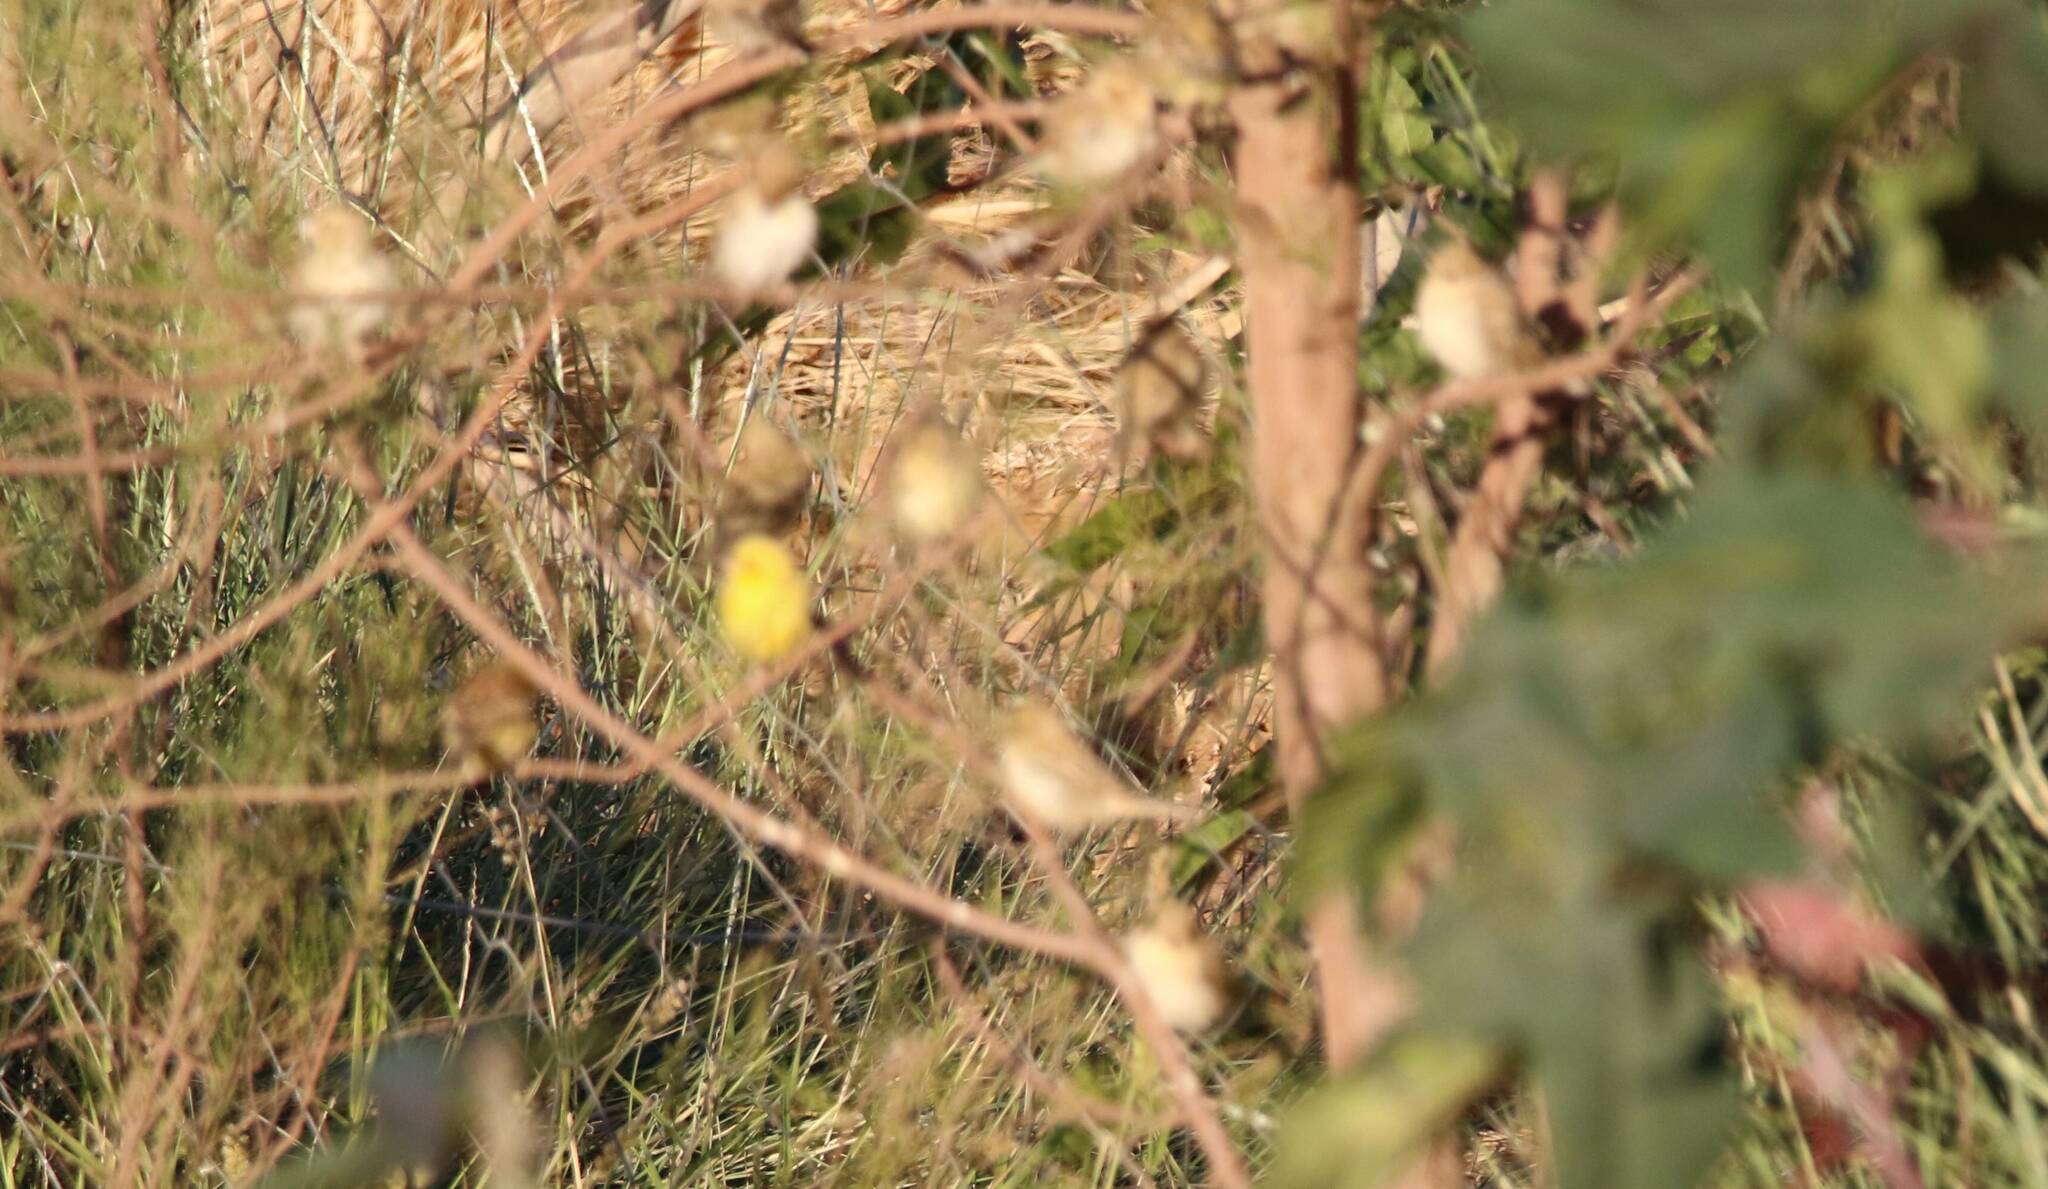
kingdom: Animalia
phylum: Chordata
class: Aves
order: Passeriformes
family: Passeridae
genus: Passer
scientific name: Passer luteus
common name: Sudan golden sparrow
